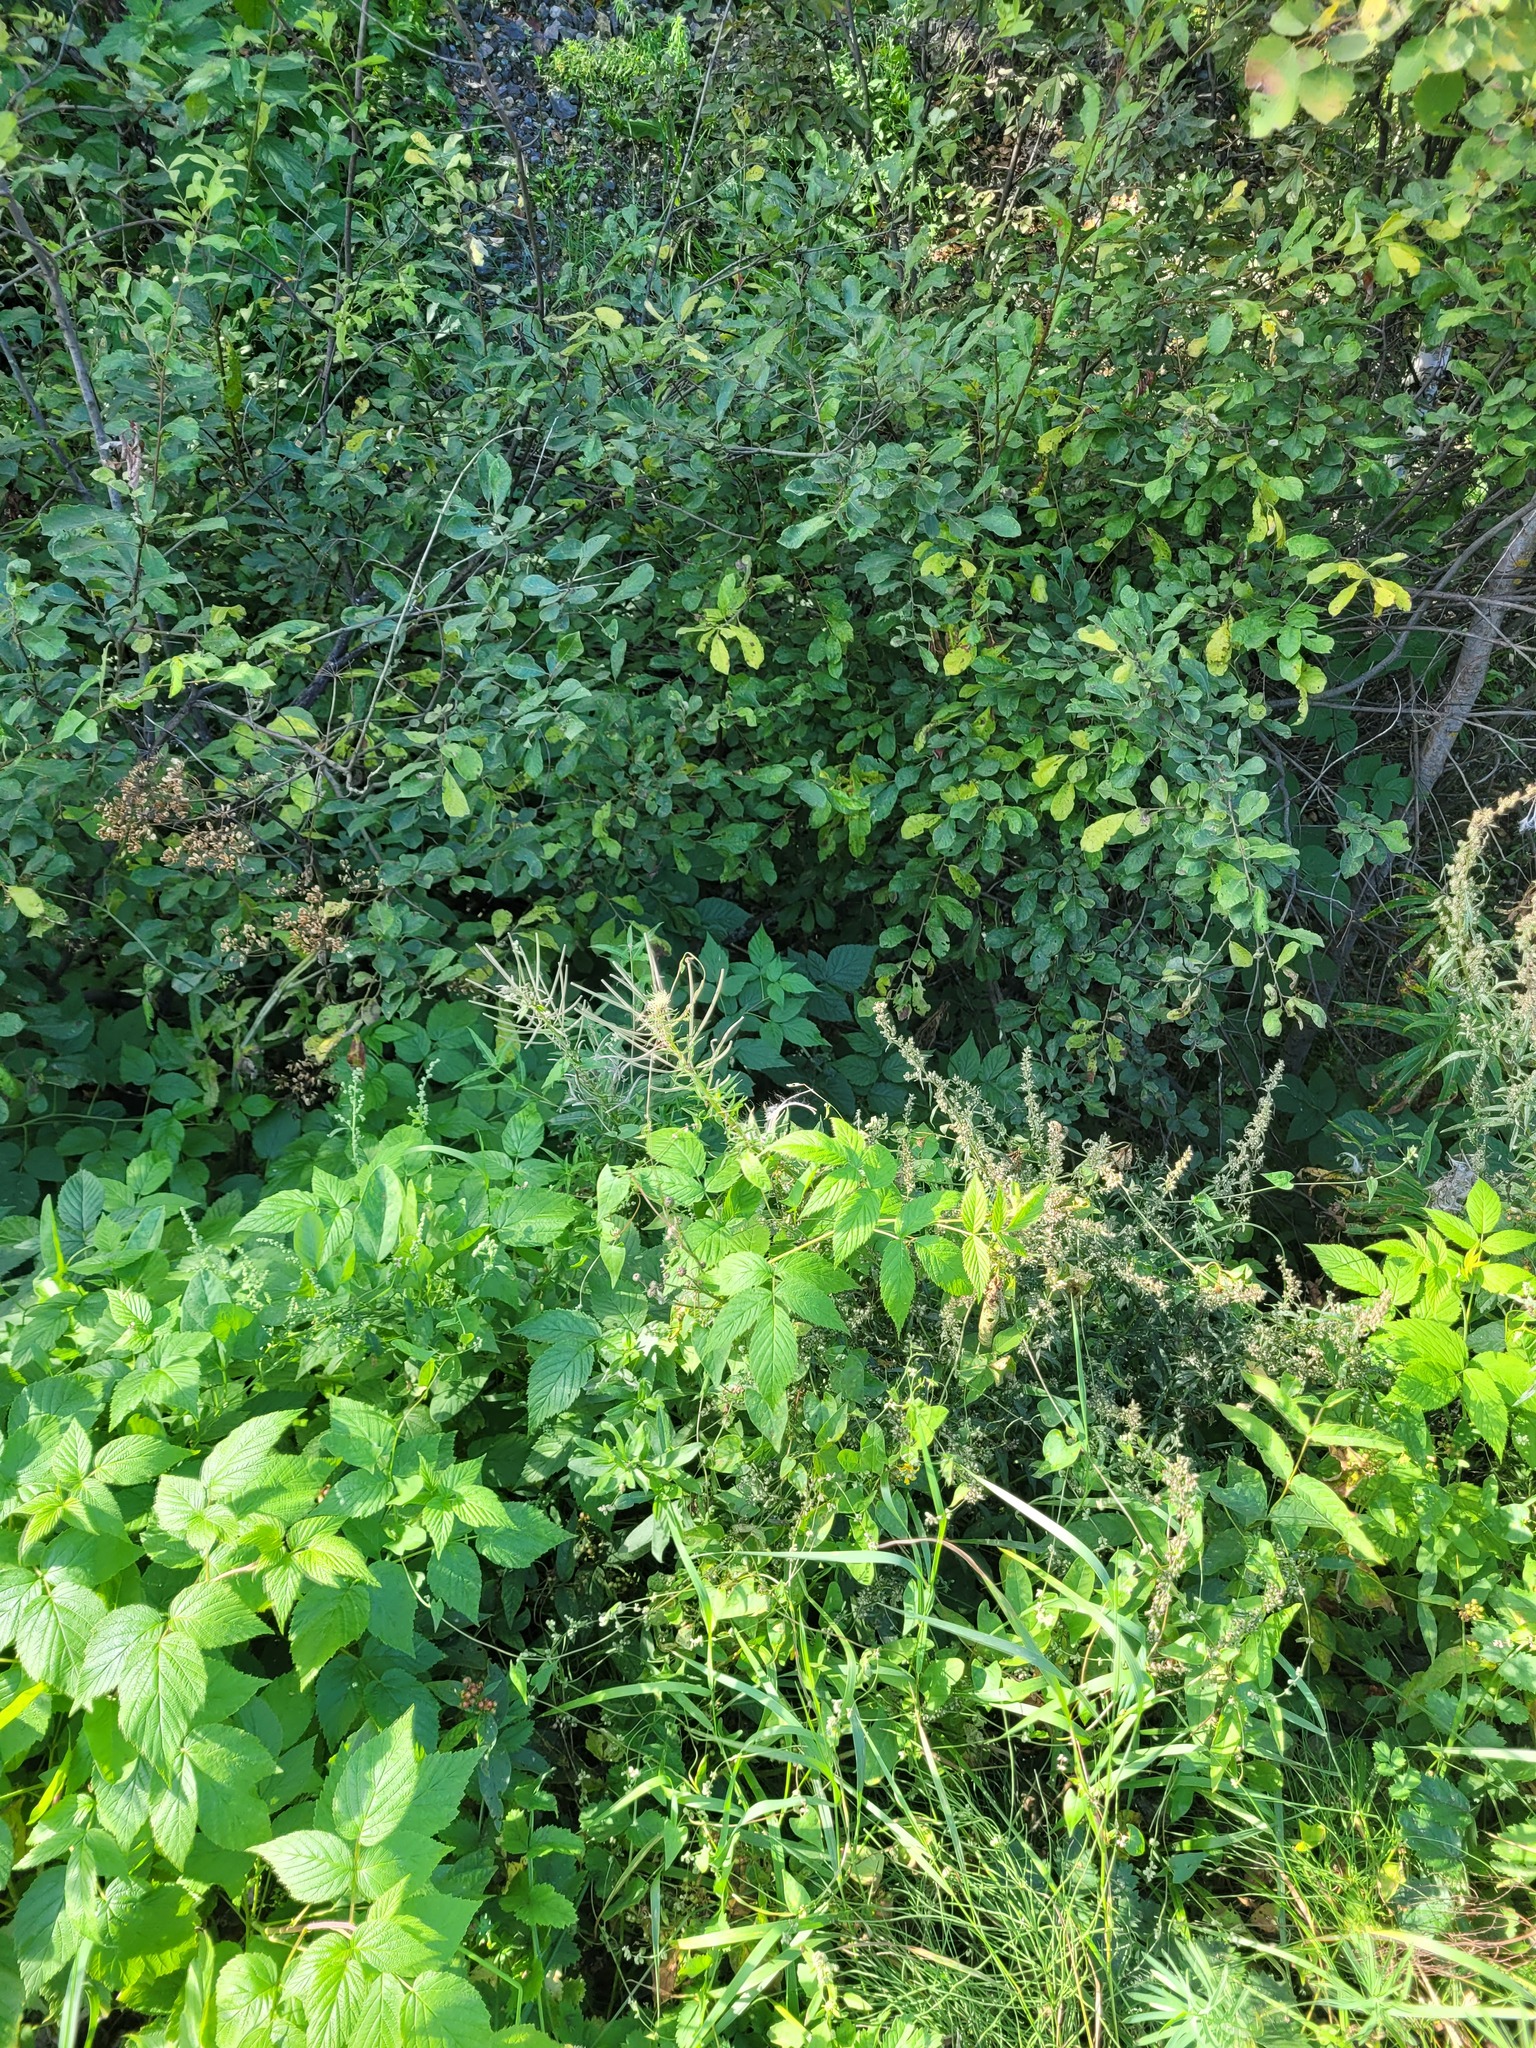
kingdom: Plantae
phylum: Tracheophyta
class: Magnoliopsida
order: Myrtales
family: Onagraceae
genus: Chamaenerion
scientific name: Chamaenerion angustifolium
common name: Fireweed
